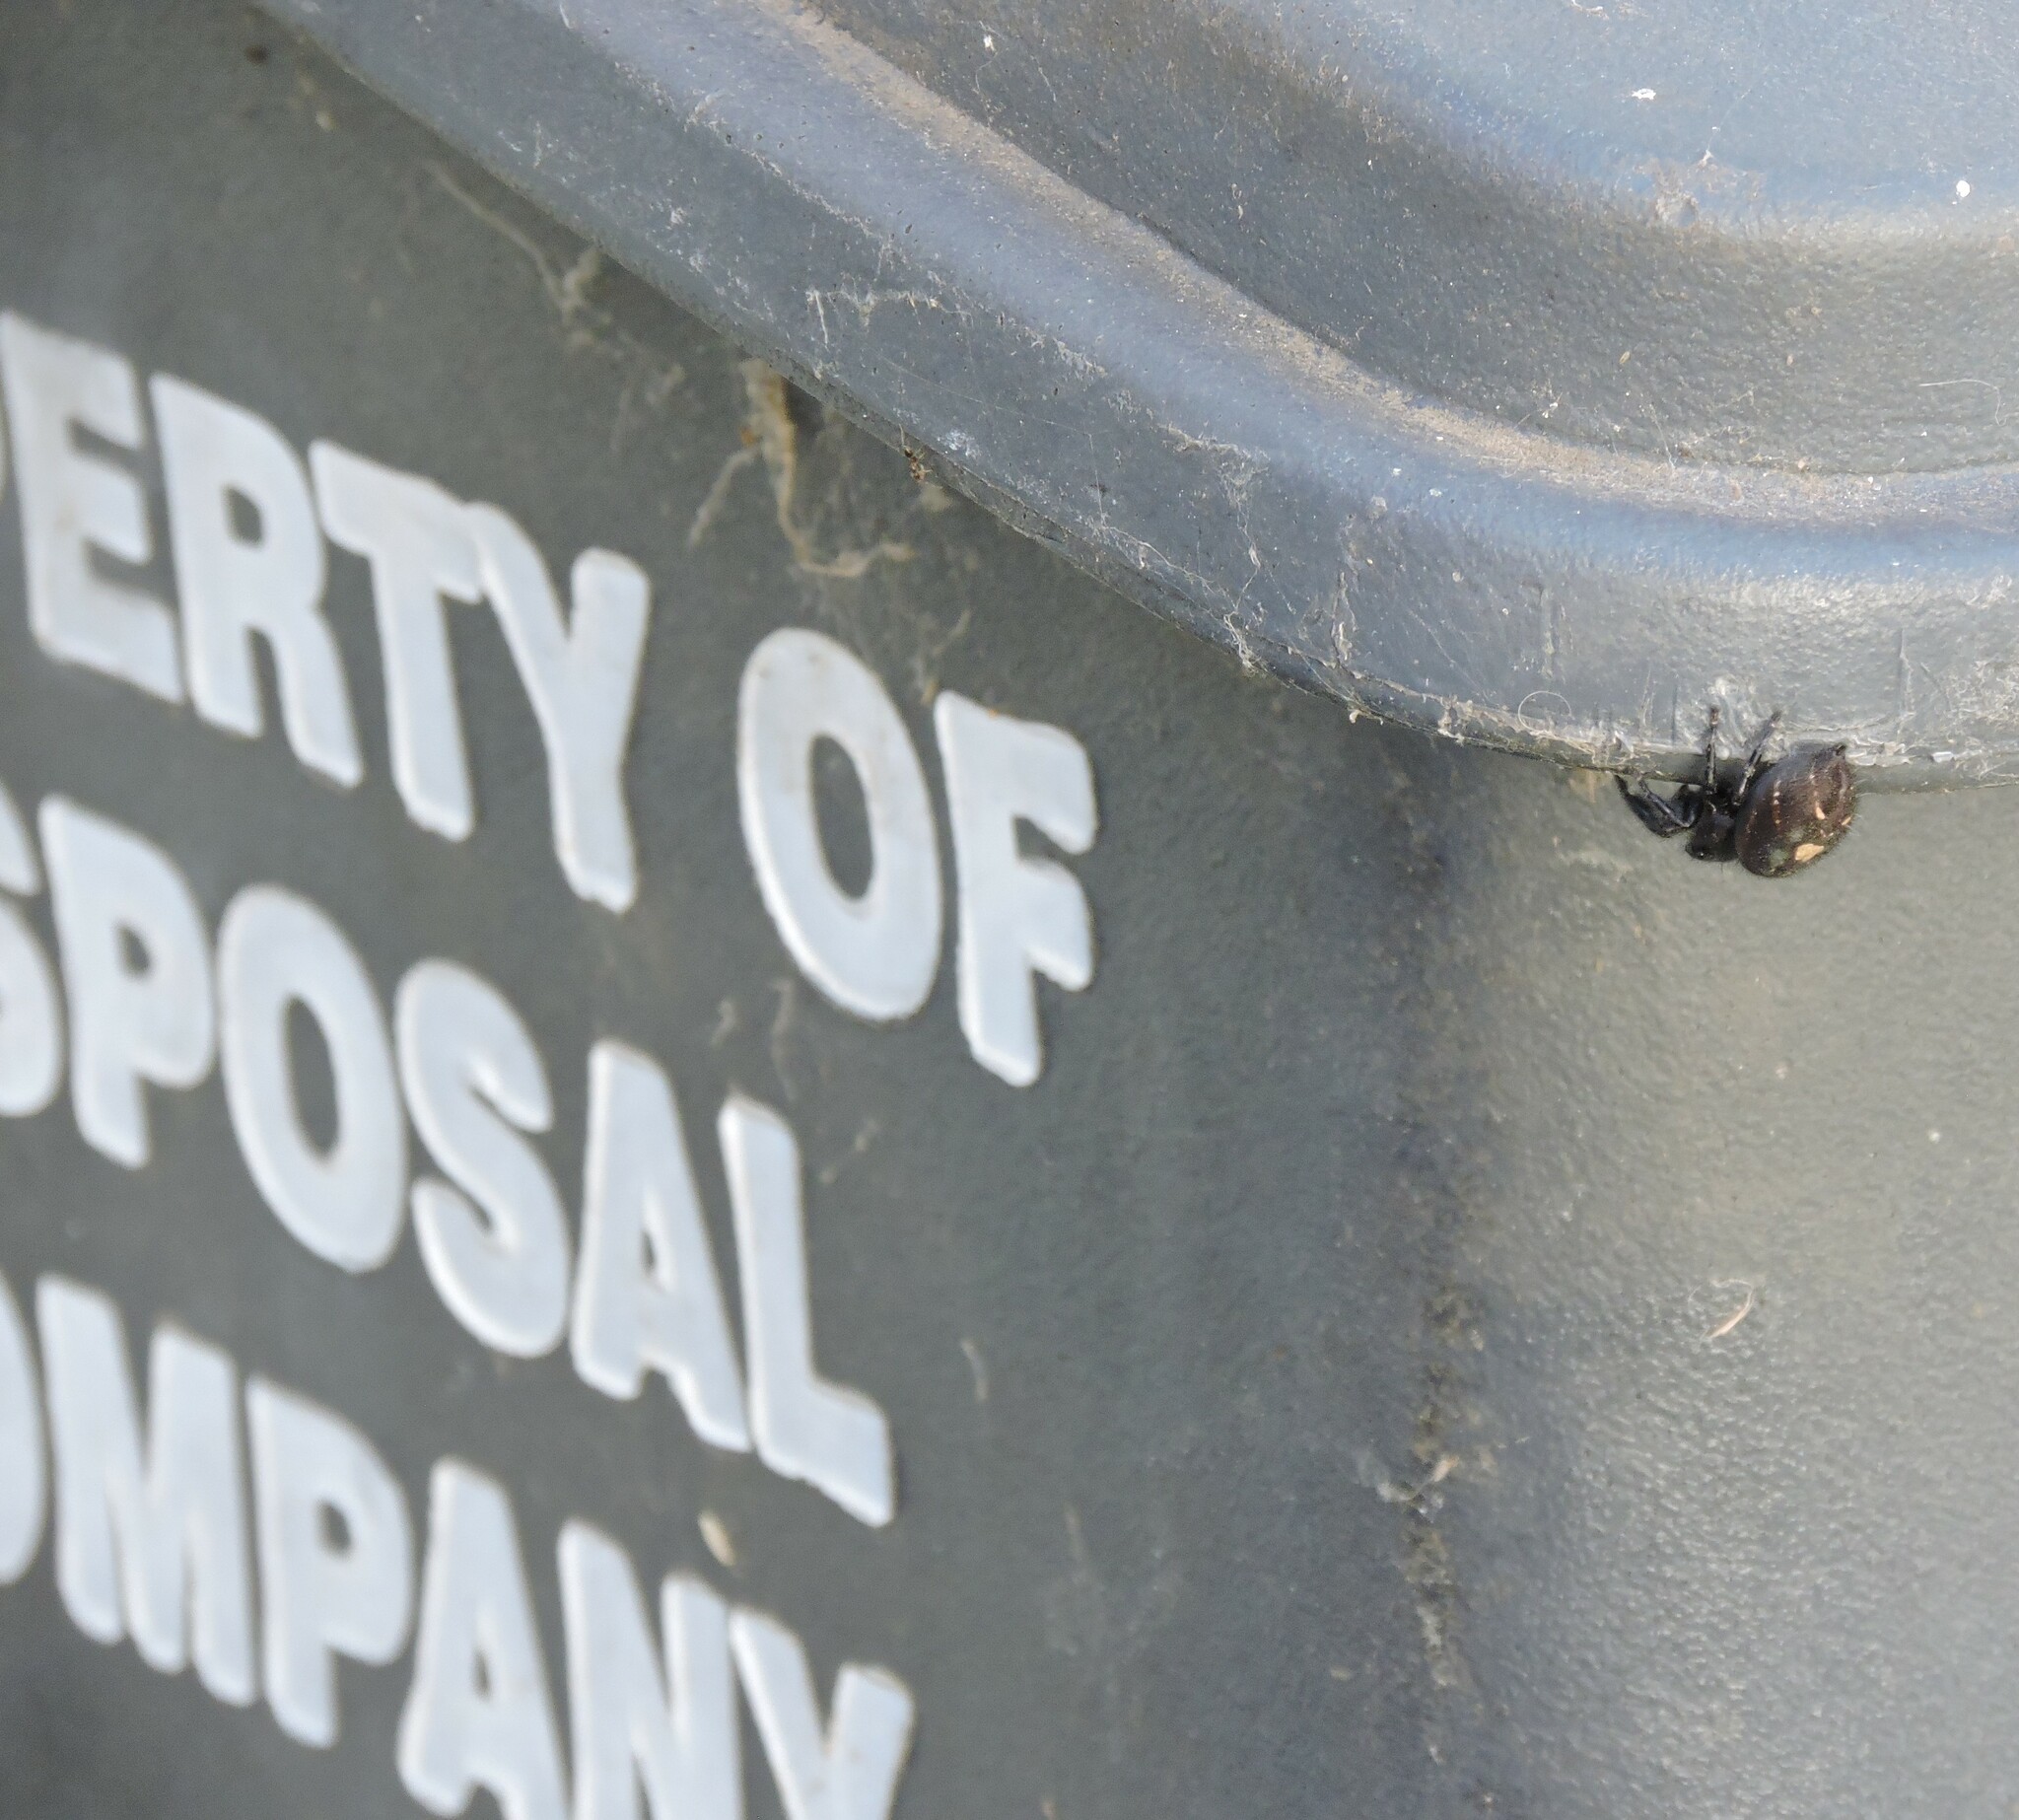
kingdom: Animalia
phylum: Arthropoda
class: Arachnida
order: Araneae
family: Salticidae
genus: Phidippus
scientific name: Phidippus audax
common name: Bold jumper
